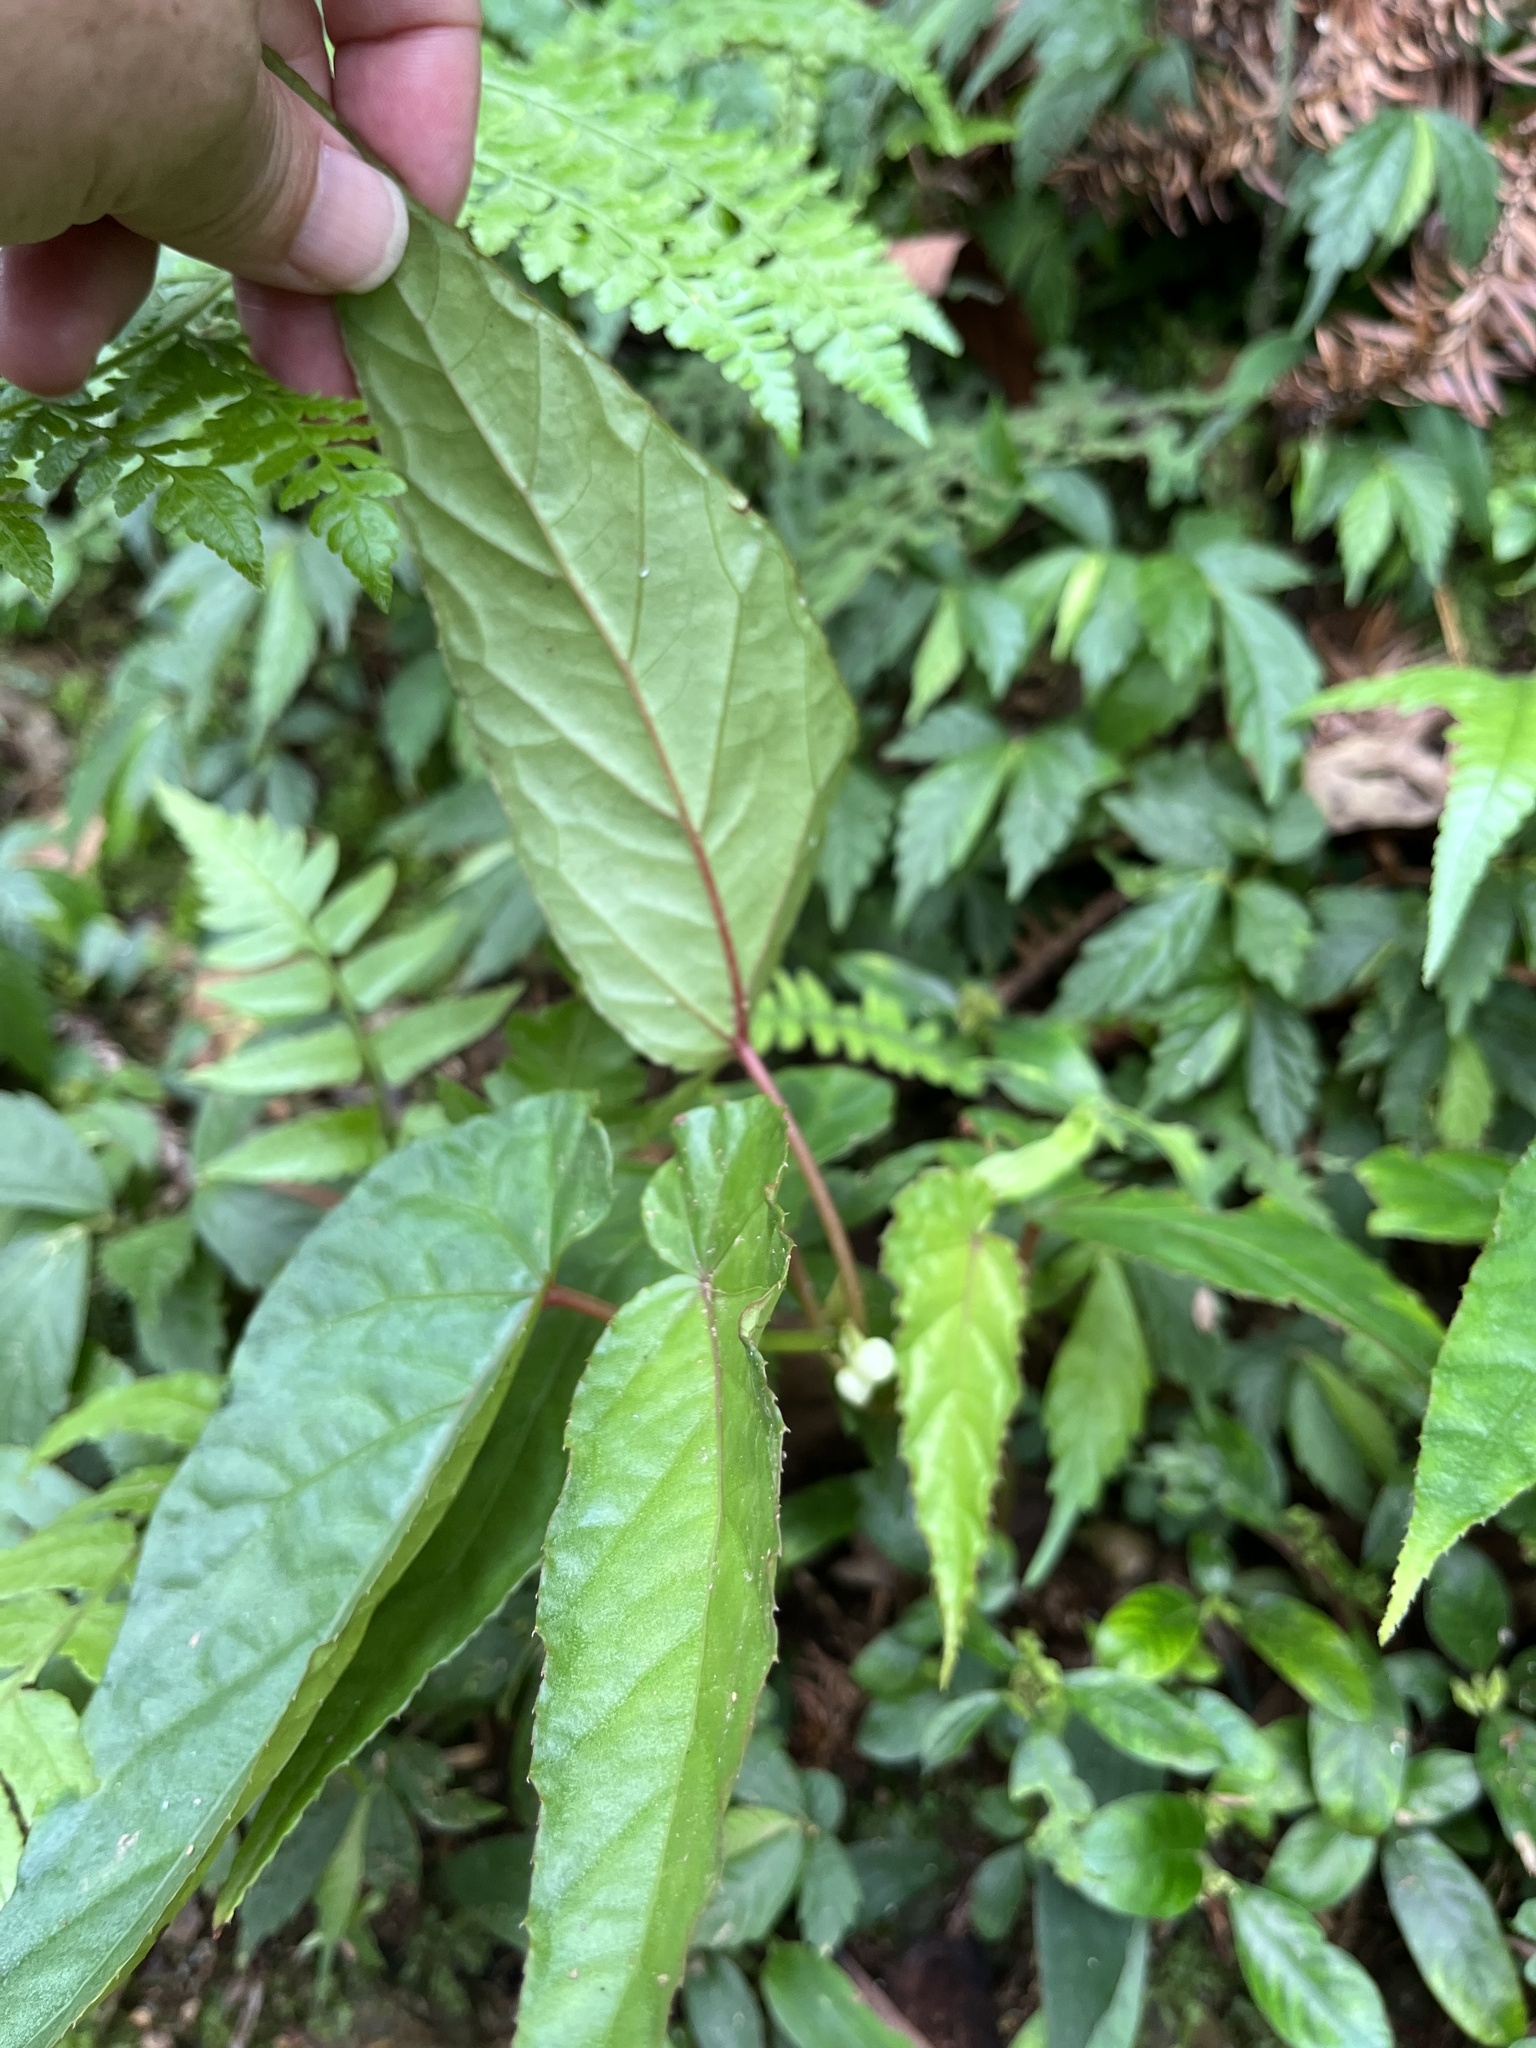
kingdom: Plantae
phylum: Tracheophyta
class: Magnoliopsida
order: Cucurbitales
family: Begoniaceae
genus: Begonia
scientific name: Begonia longifolia
